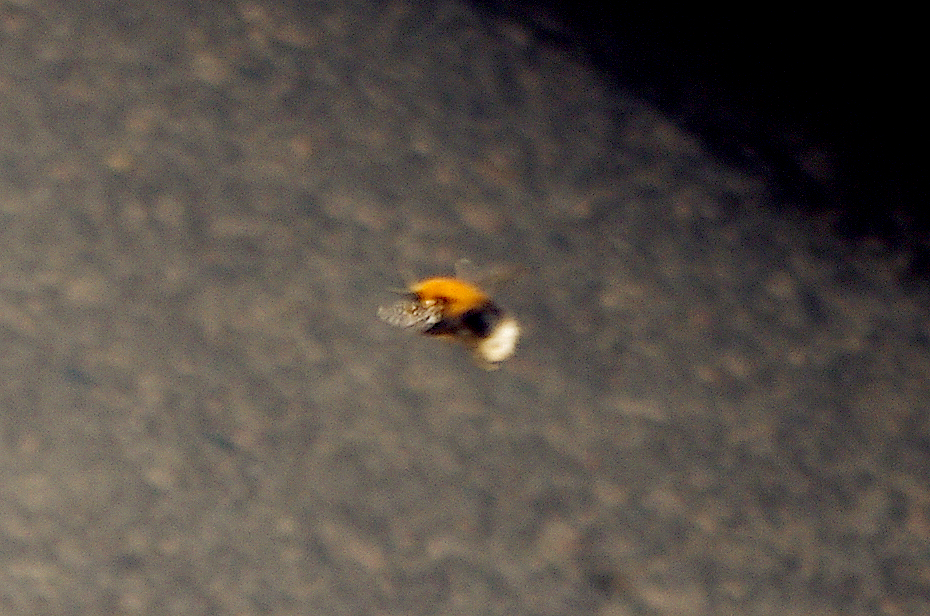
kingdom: Animalia
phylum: Arthropoda
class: Insecta
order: Hymenoptera
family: Apidae
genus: Bombus
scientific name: Bombus hypnorum
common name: New garden bumblebee
